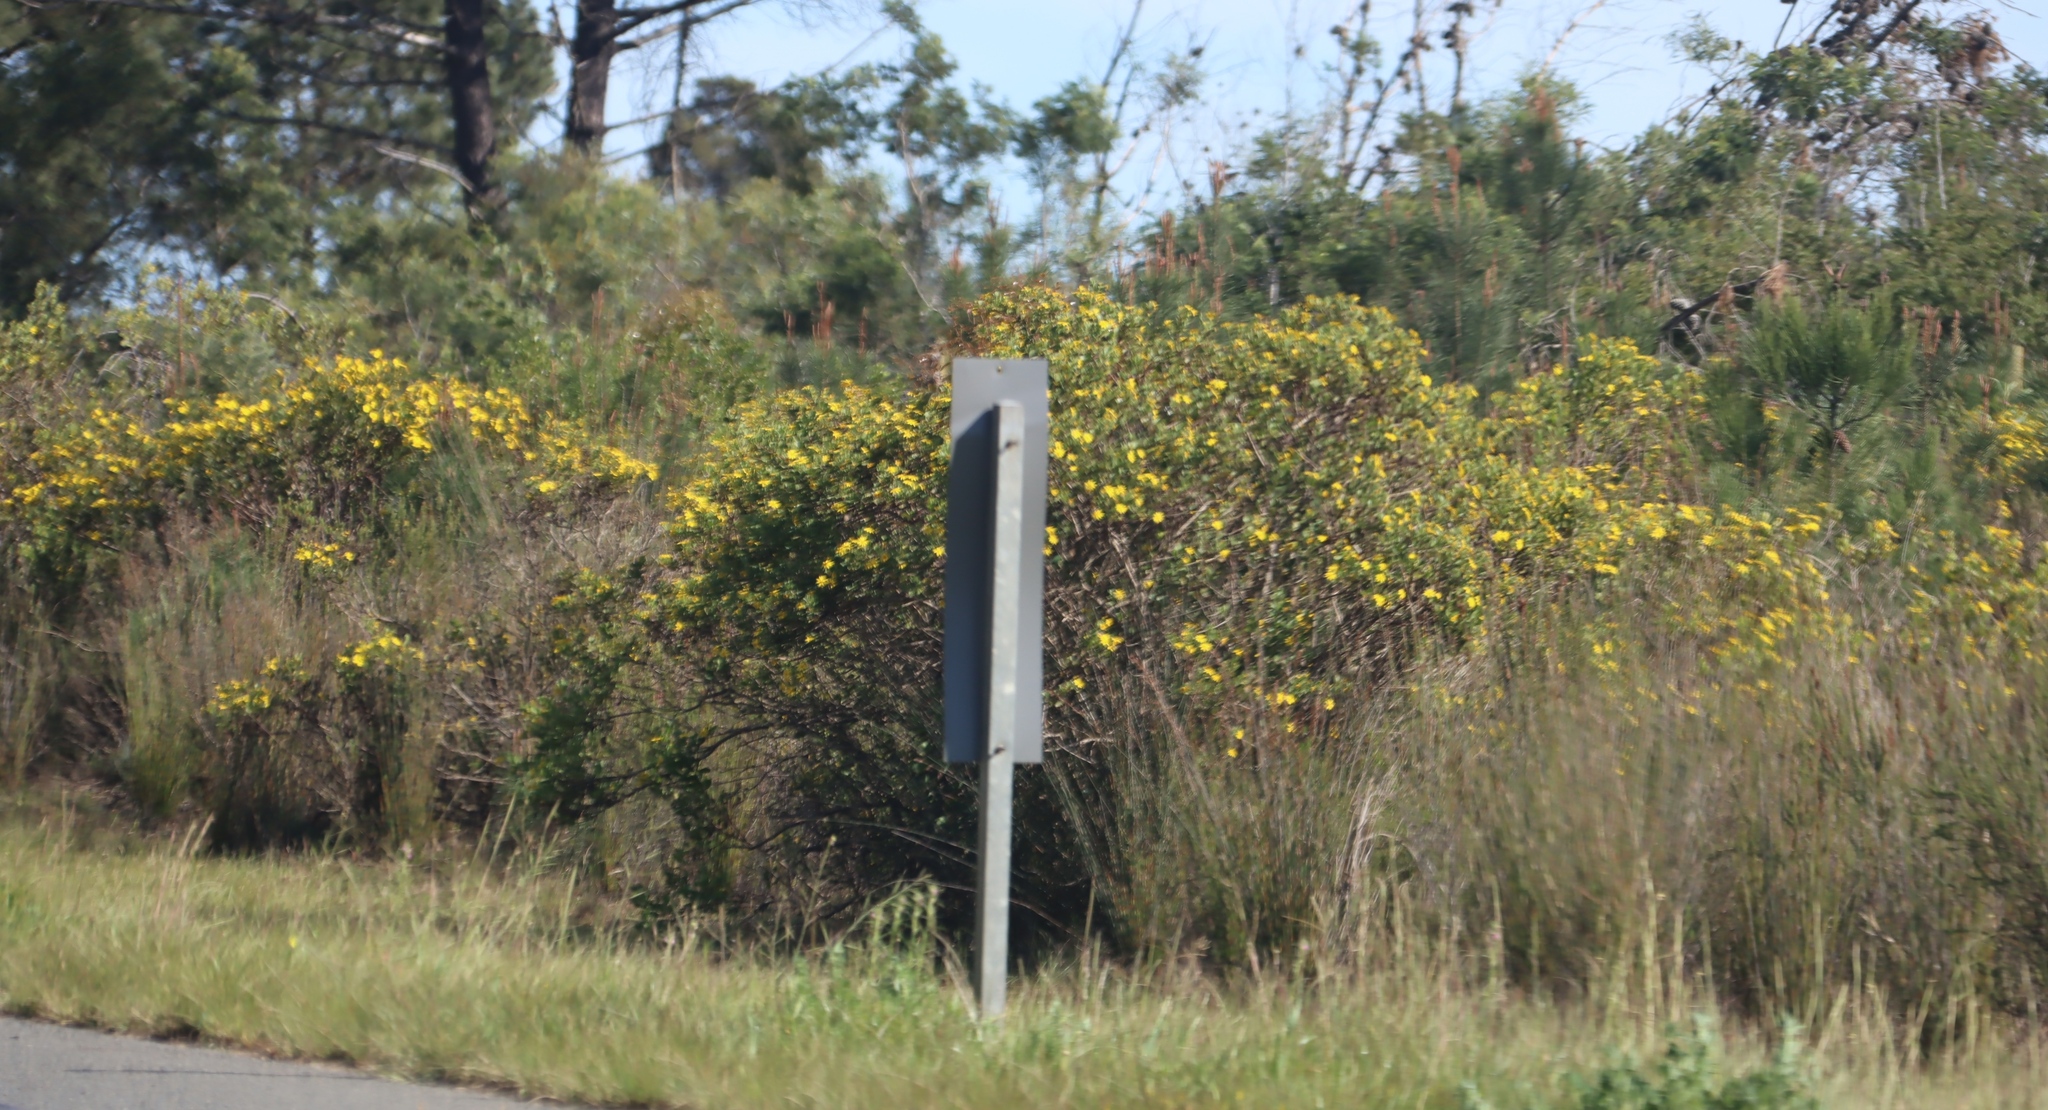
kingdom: Plantae
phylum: Tracheophyta
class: Magnoliopsida
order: Asterales
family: Asteraceae
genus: Osteospermum
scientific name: Osteospermum moniliferum
